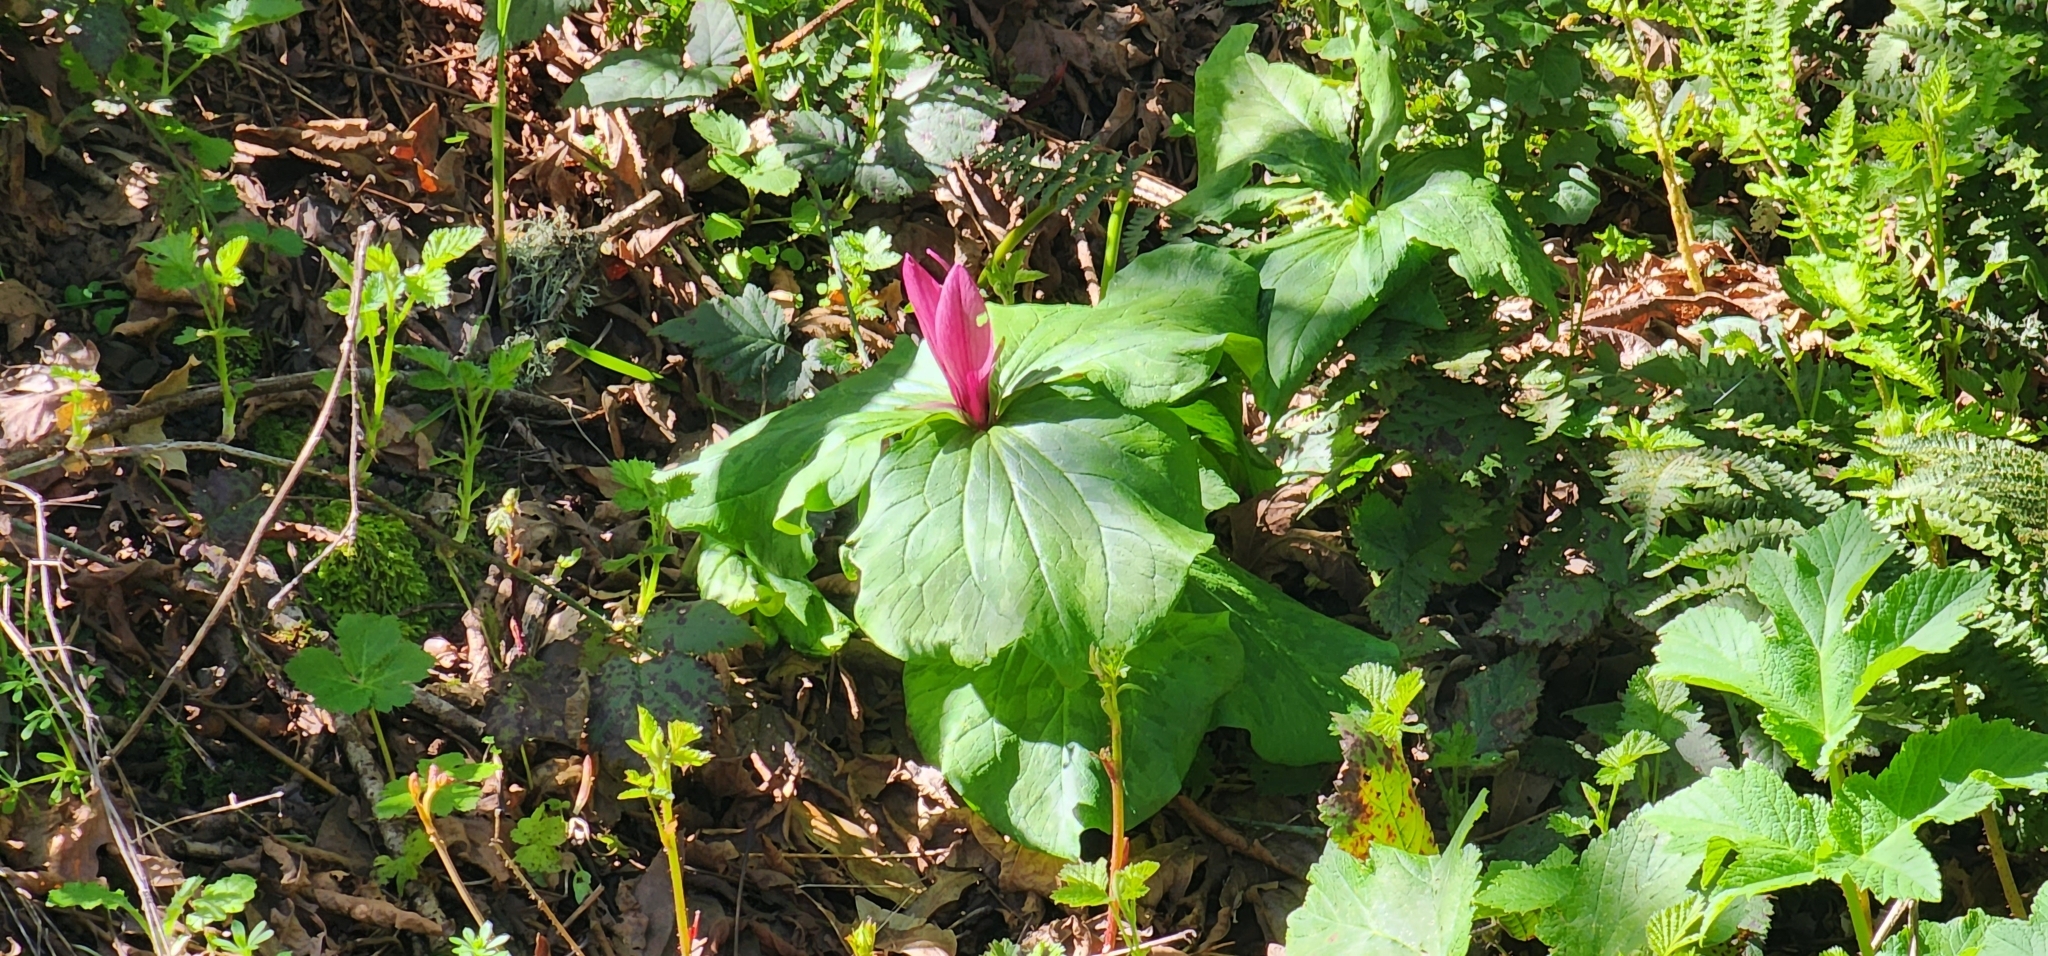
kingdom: Plantae
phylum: Tracheophyta
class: Liliopsida
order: Liliales
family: Melanthiaceae
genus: Trillium
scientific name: Trillium chloropetalum
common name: Giant trillium
